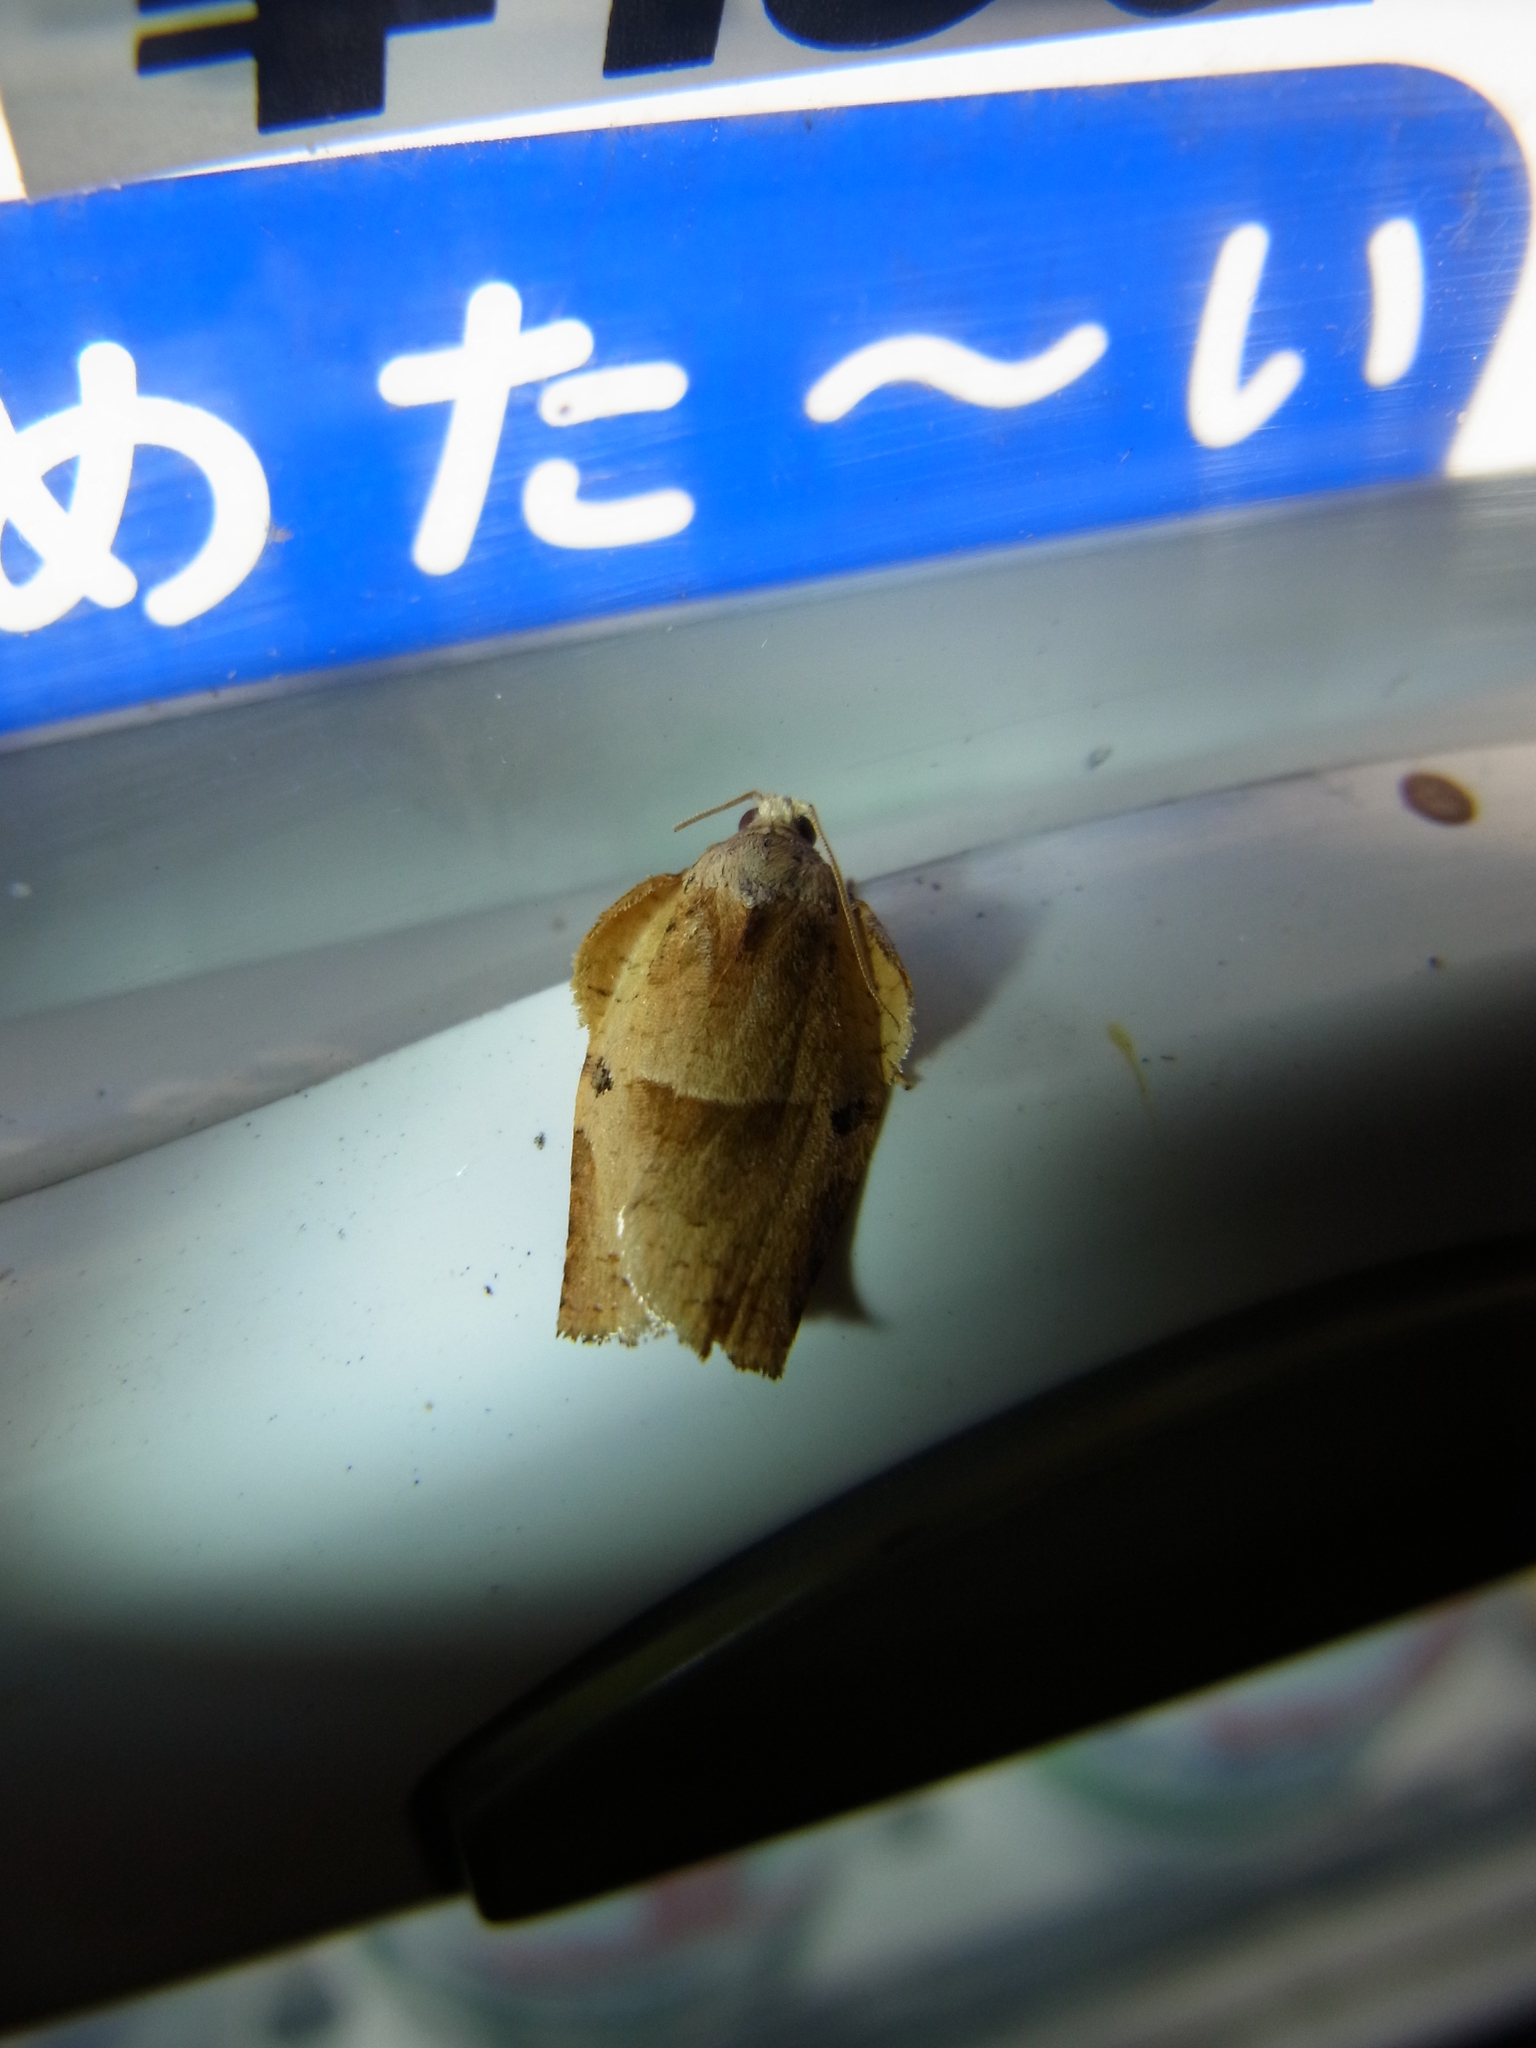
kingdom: Animalia
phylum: Arthropoda
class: Insecta
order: Lepidoptera
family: Tortricidae
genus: Homona
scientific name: Homona magnanima
